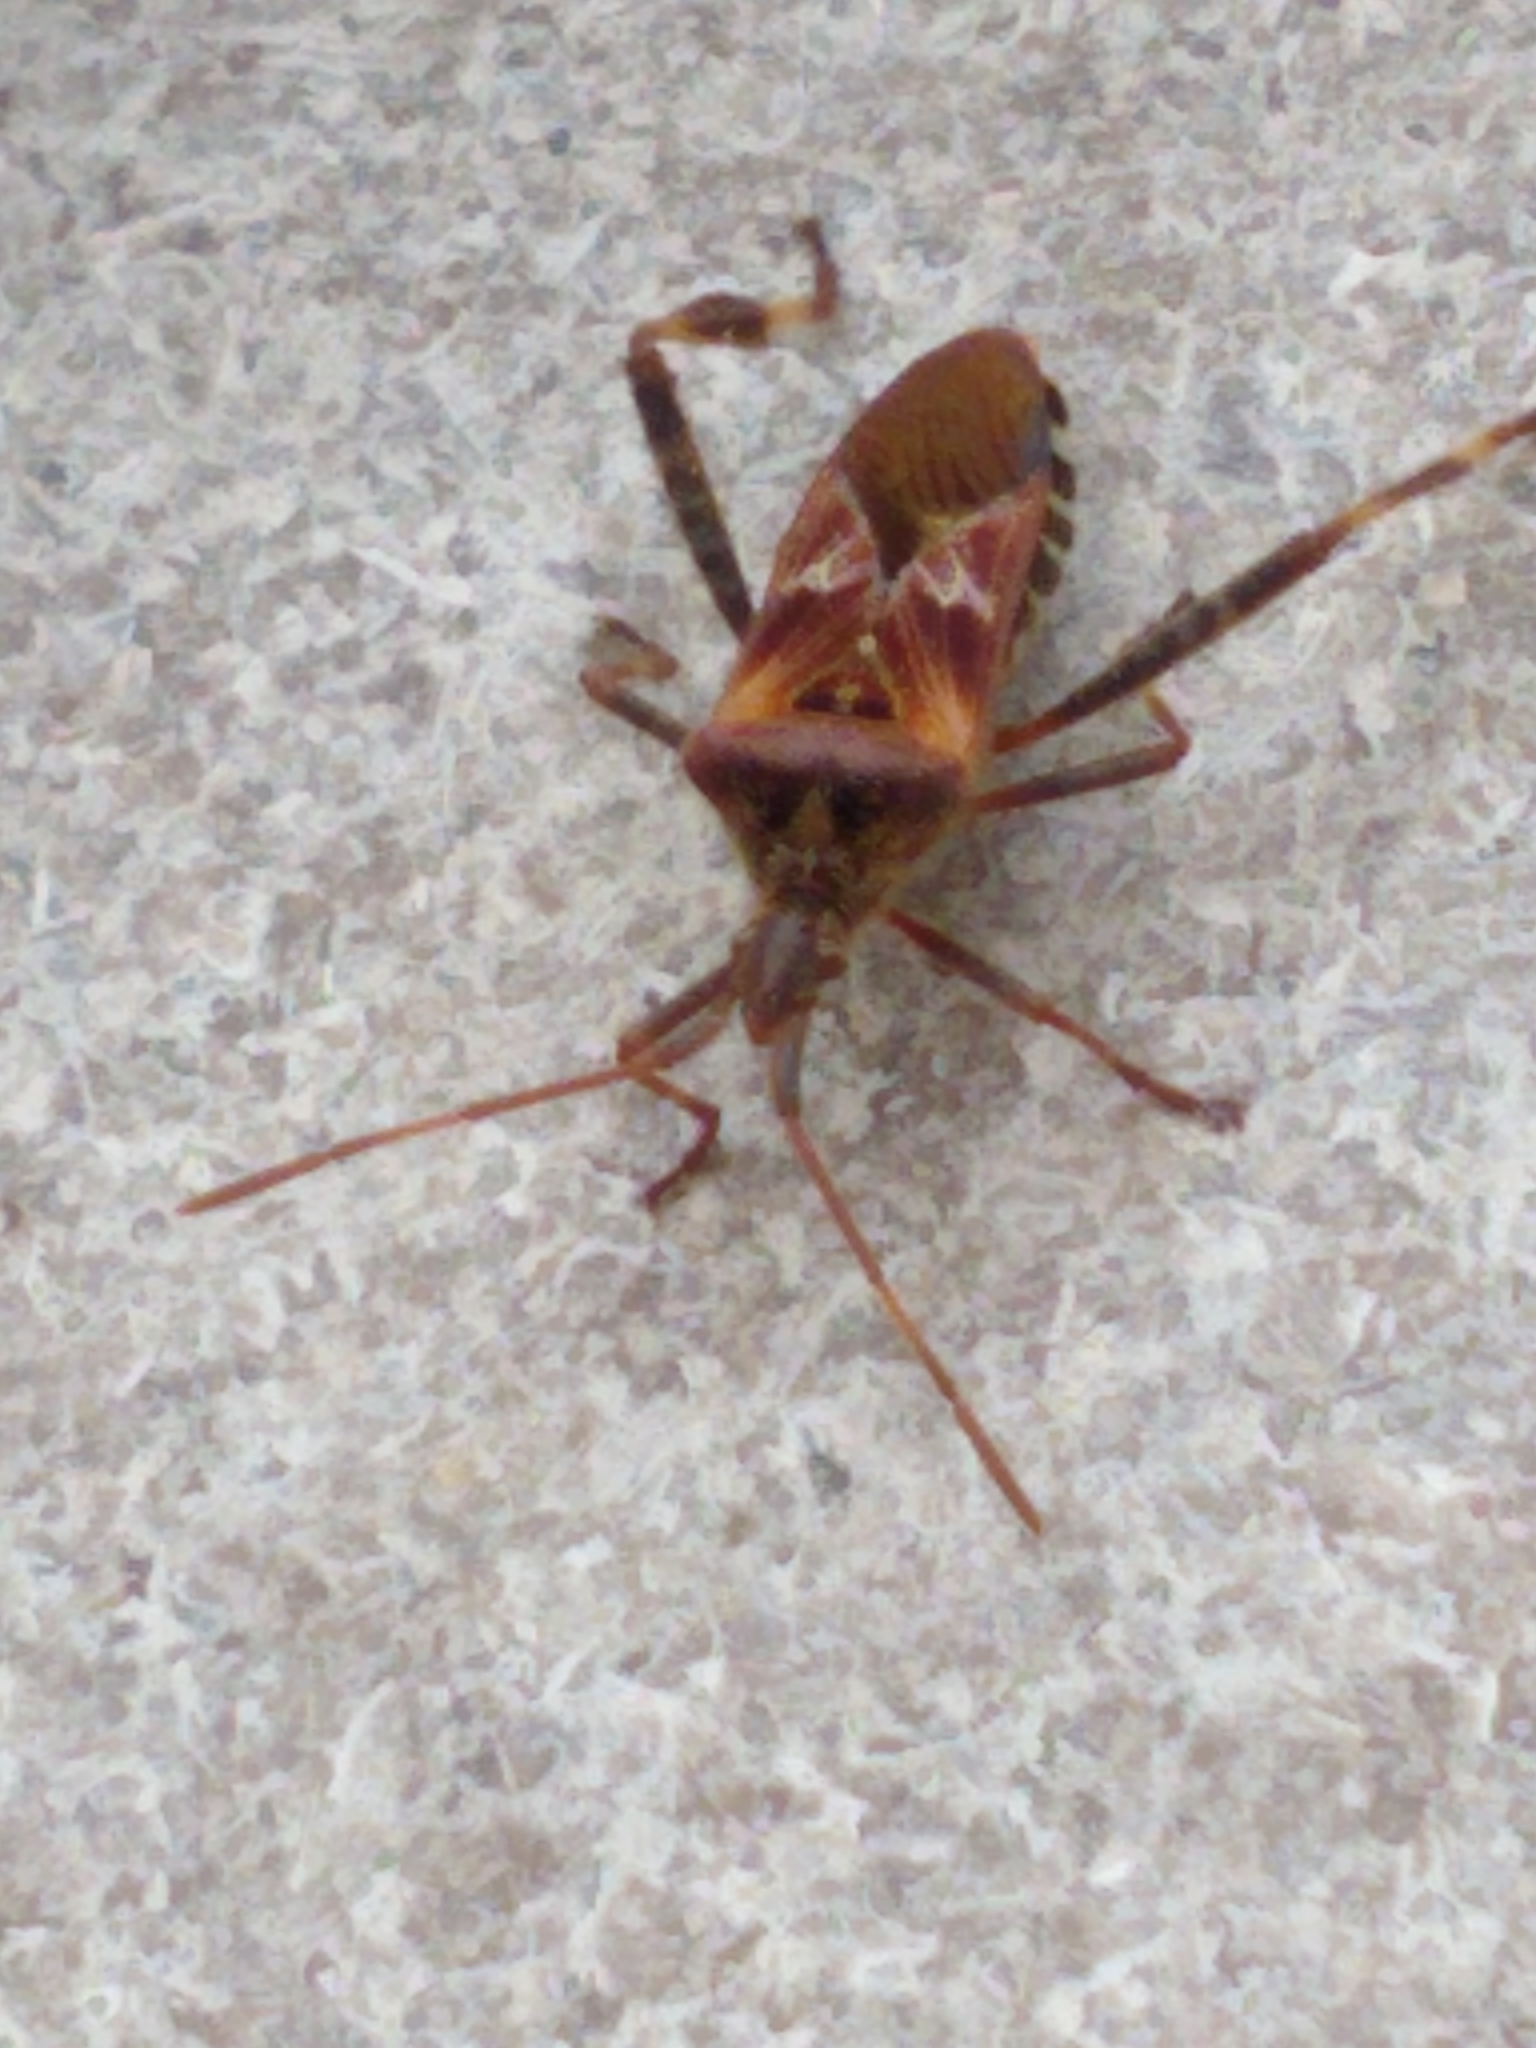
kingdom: Animalia
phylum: Arthropoda
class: Insecta
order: Hemiptera
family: Coreidae
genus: Leptoglossus
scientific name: Leptoglossus occidentalis
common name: Western conifer-seed bug
